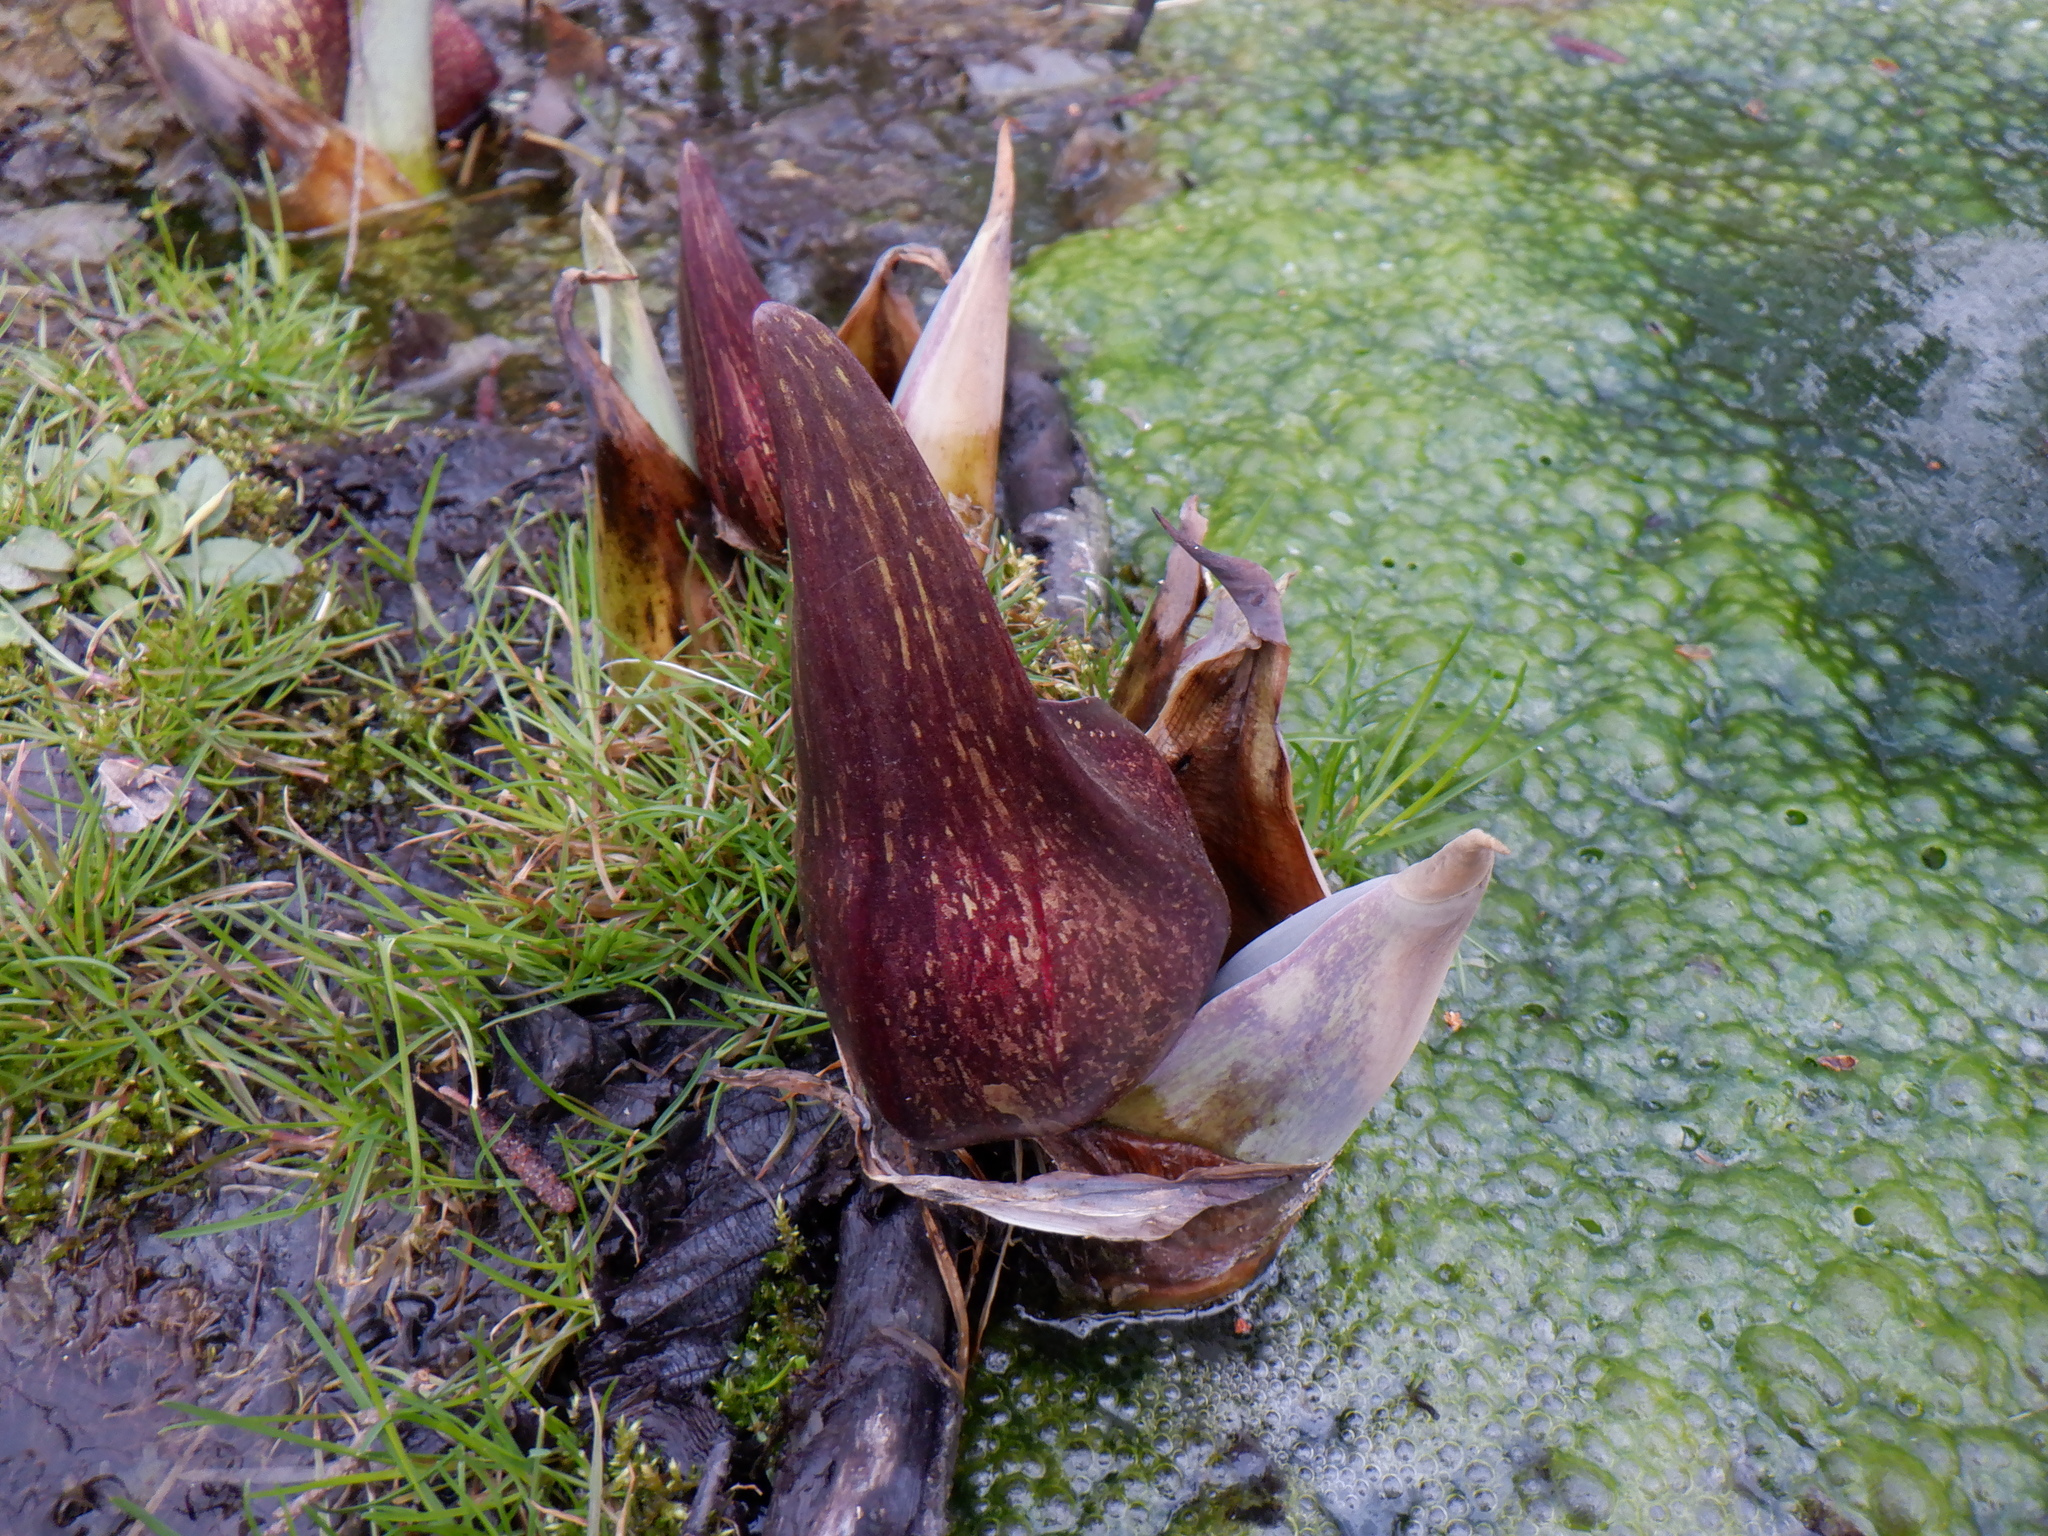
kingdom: Plantae
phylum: Tracheophyta
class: Liliopsida
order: Alismatales
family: Araceae
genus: Symplocarpus
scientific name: Symplocarpus foetidus
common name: Eastern skunk cabbage
